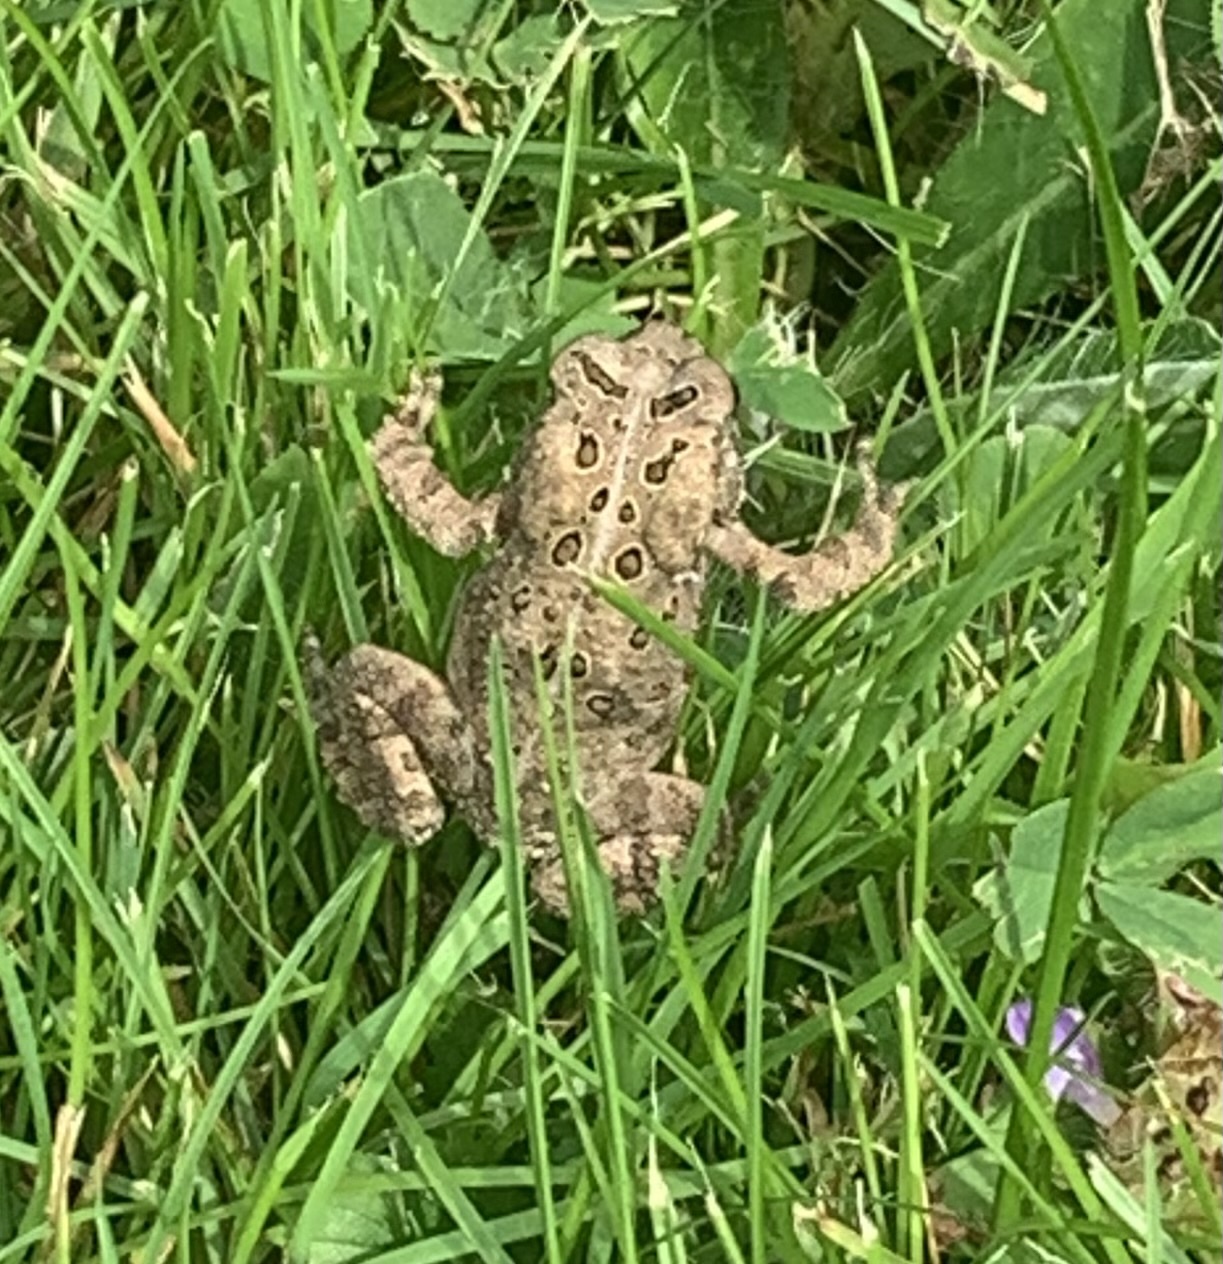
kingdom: Animalia
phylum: Chordata
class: Amphibia
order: Anura
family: Bufonidae
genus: Anaxyrus
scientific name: Anaxyrus americanus
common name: American toad
